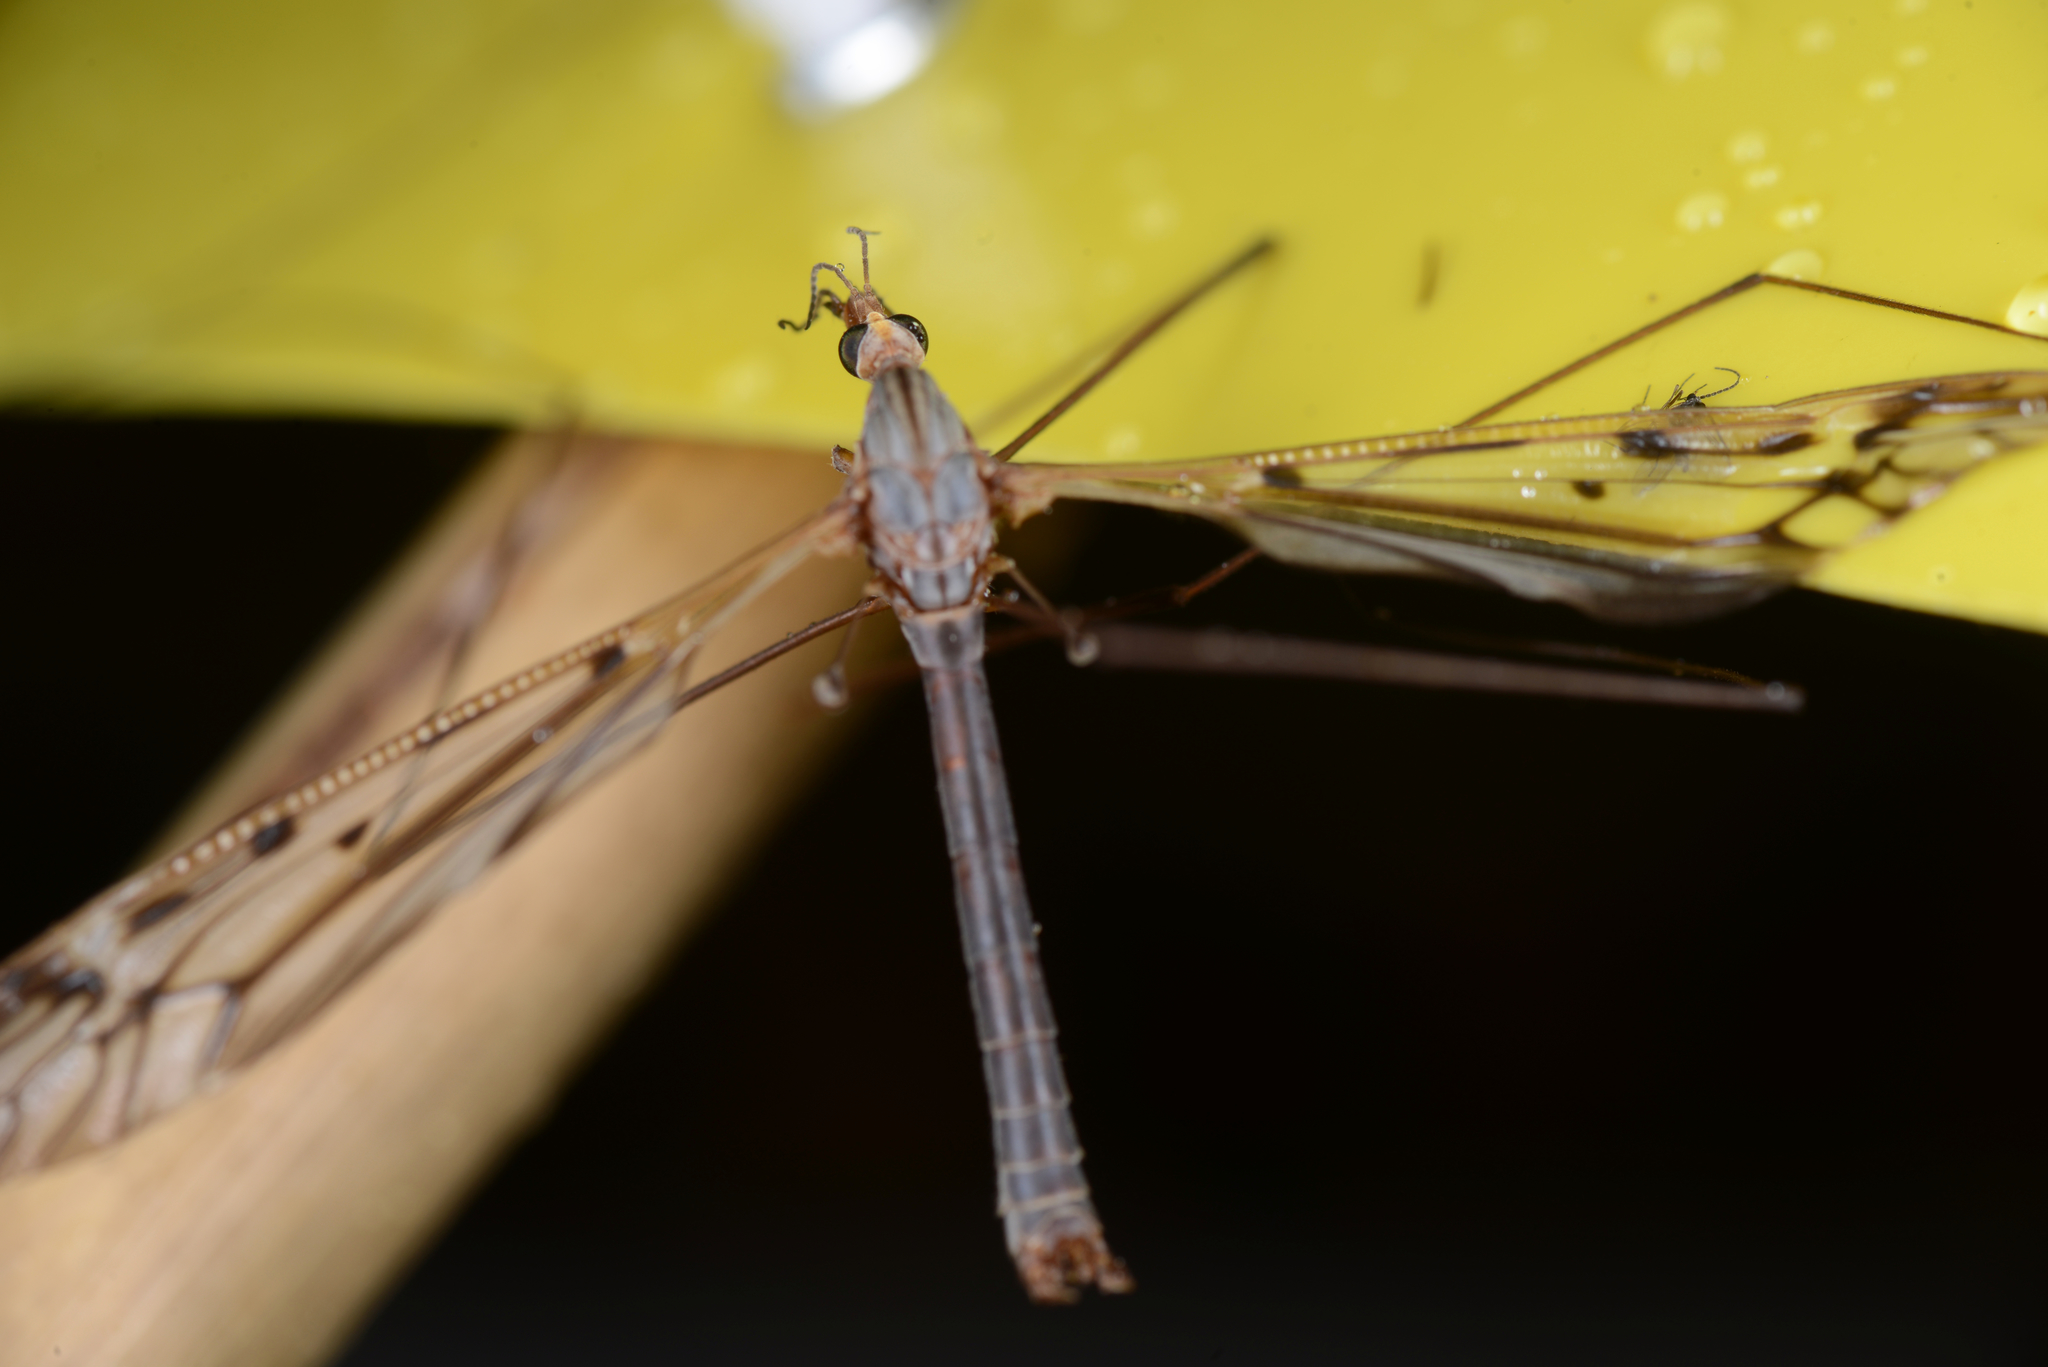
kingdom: Animalia
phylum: Arthropoda
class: Insecta
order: Diptera
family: Tipulidae
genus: Zelandotipula
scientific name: Zelandotipula novarae
